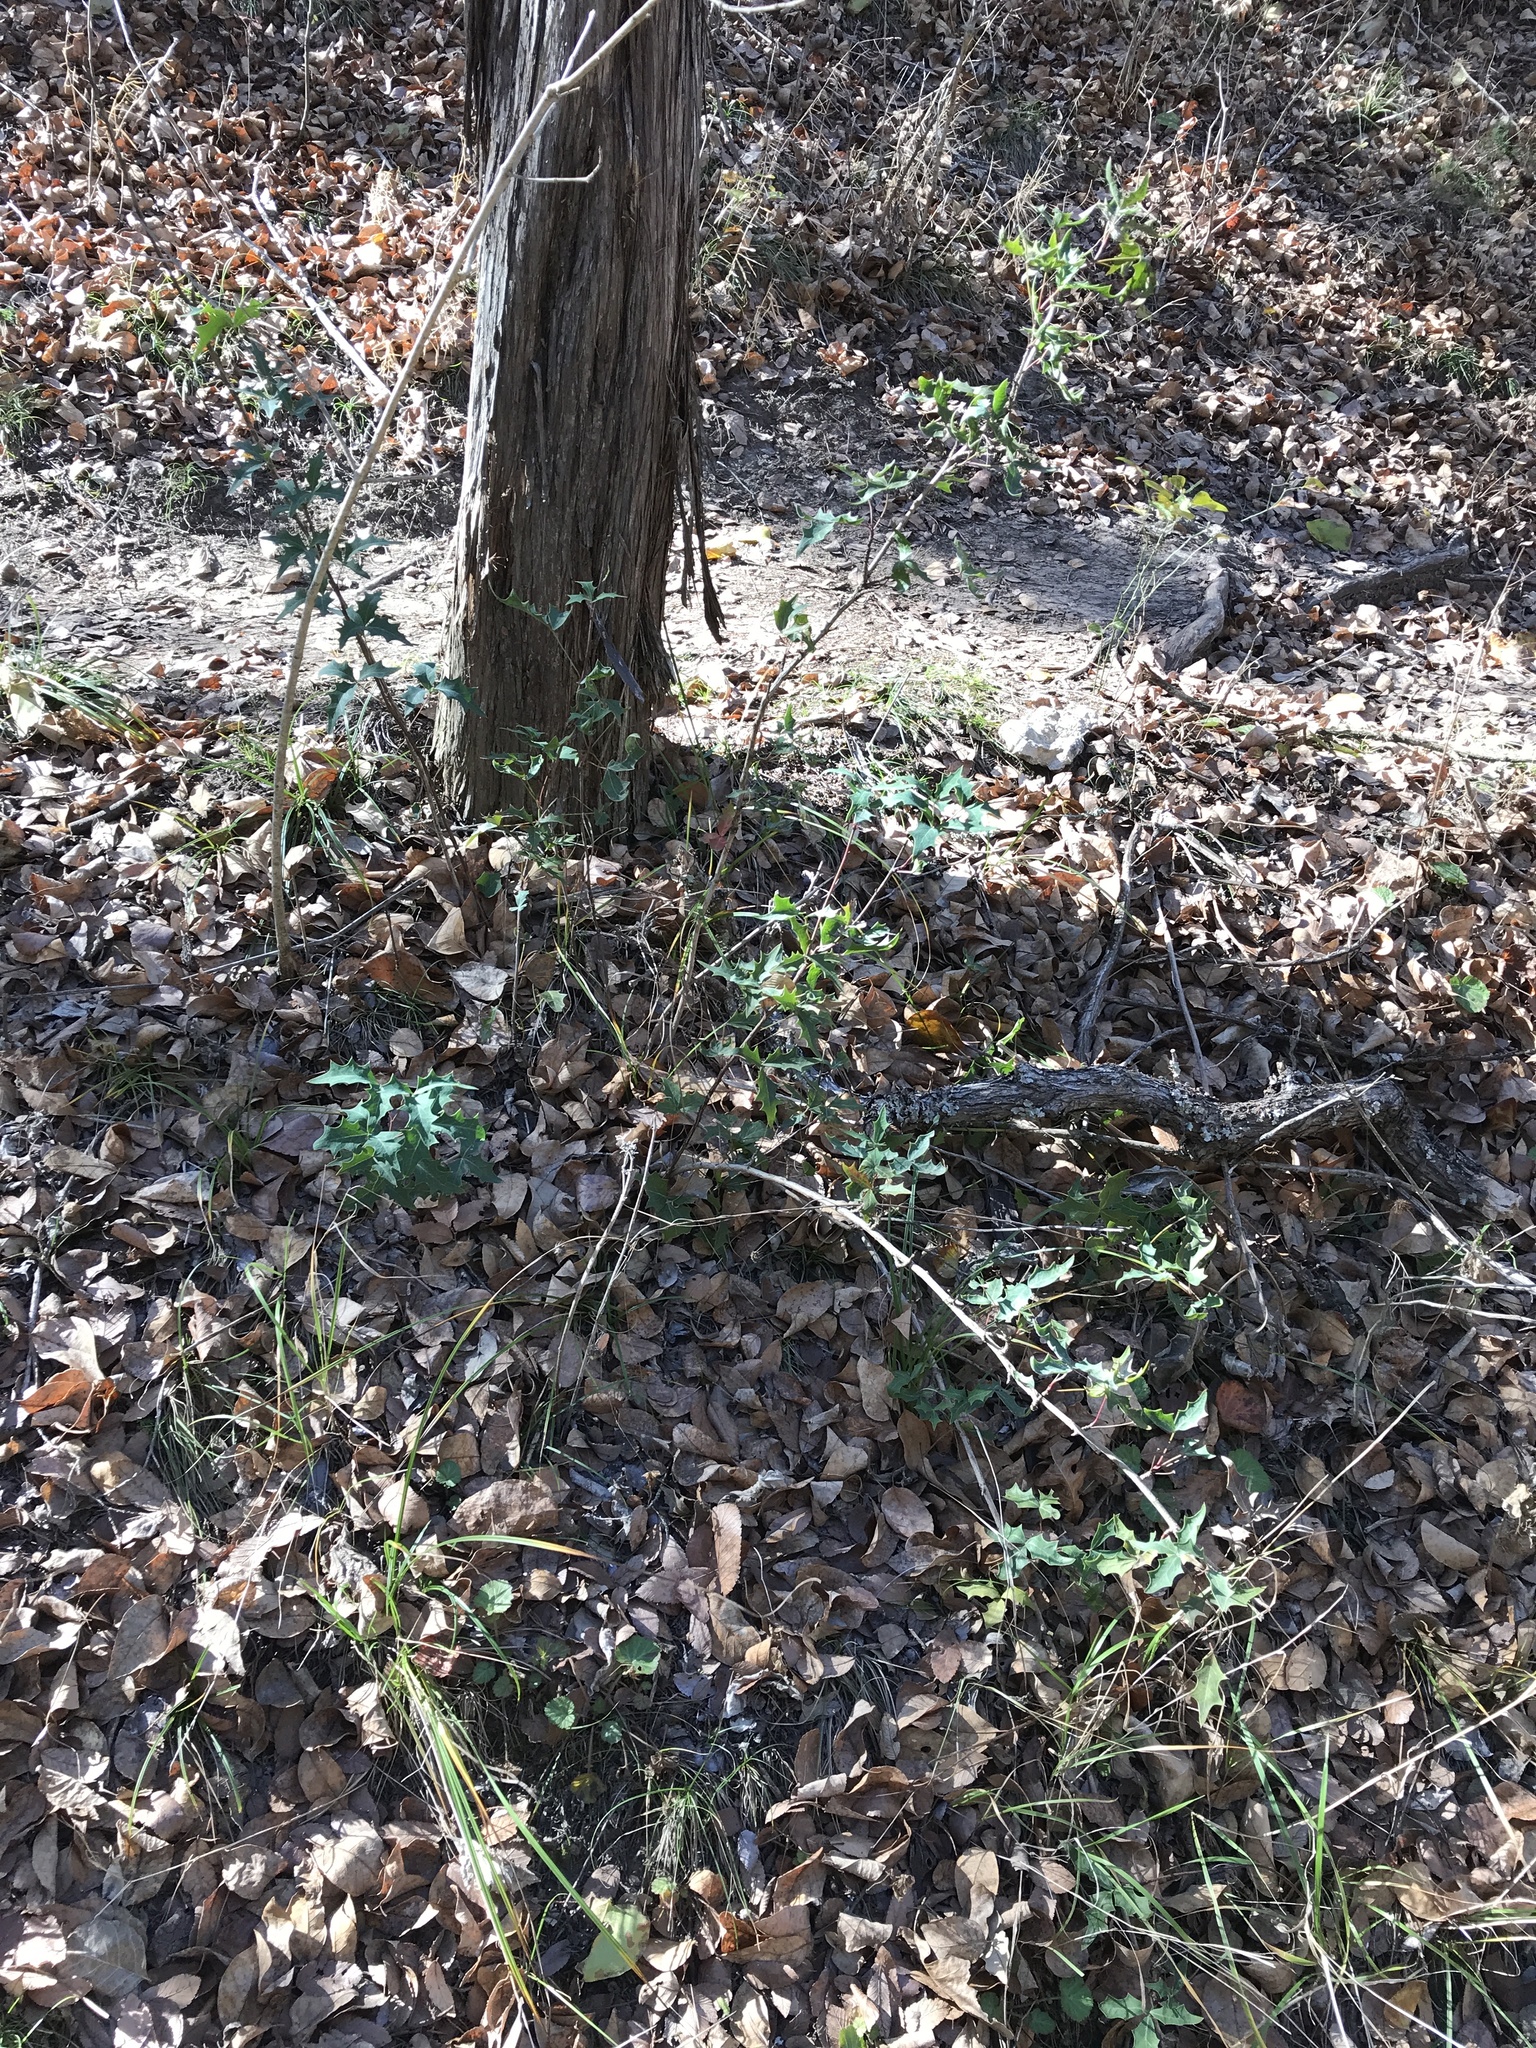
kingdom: Plantae
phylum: Tracheophyta
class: Magnoliopsida
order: Ranunculales
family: Berberidaceae
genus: Alloberberis
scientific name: Alloberberis trifoliolata
